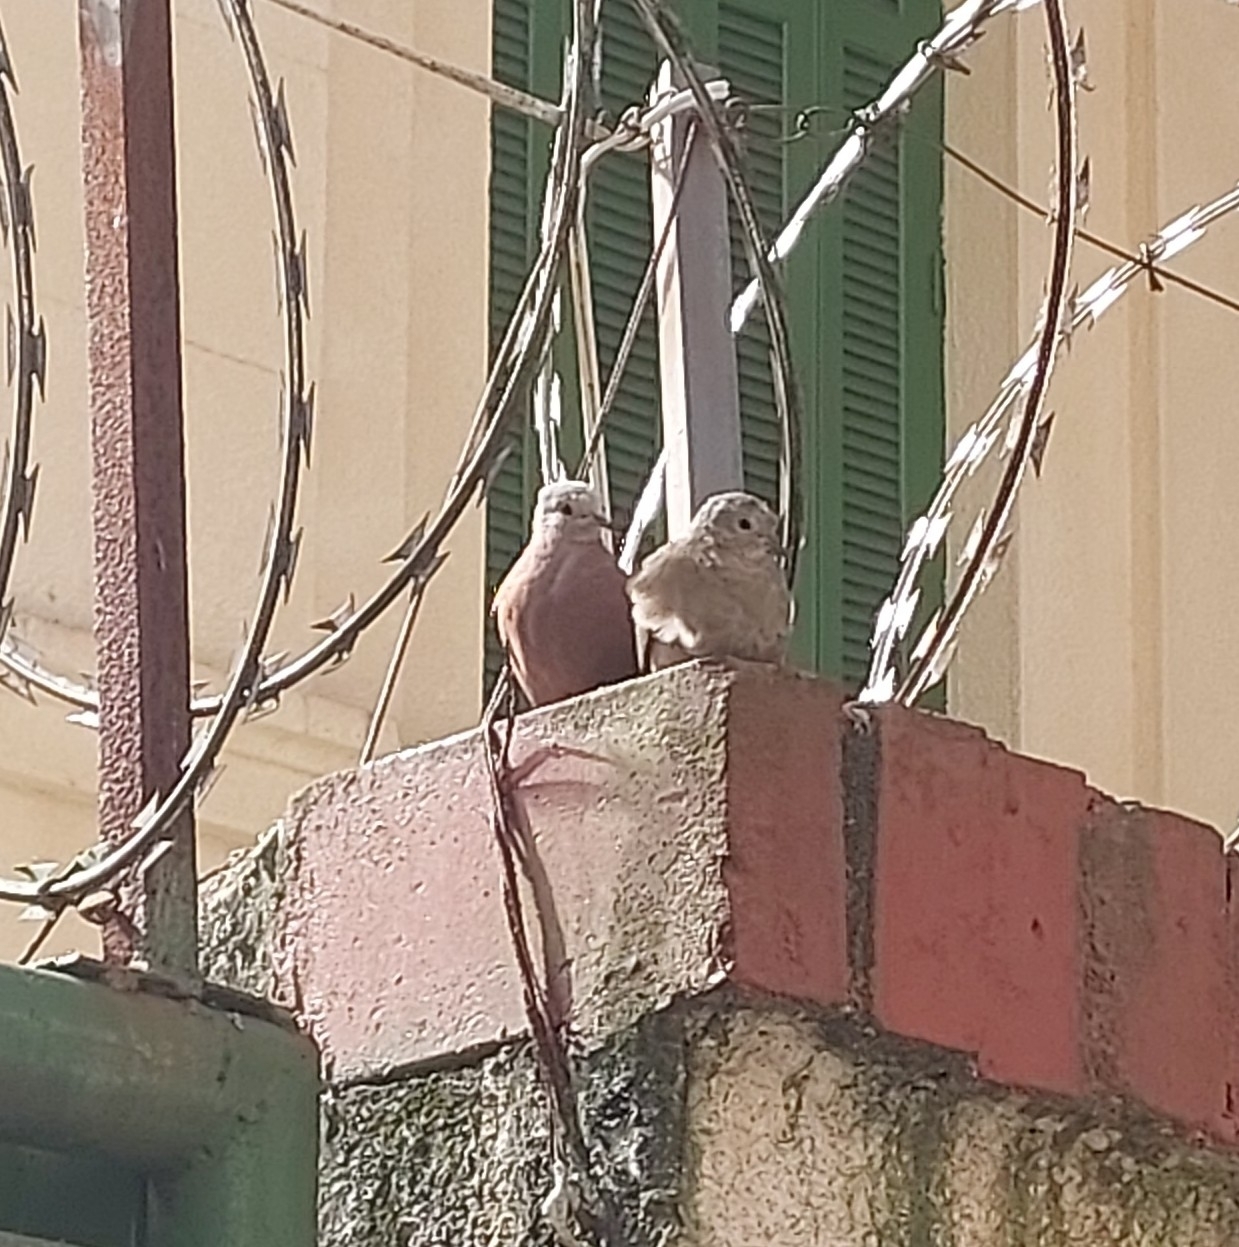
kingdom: Animalia
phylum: Chordata
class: Aves
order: Columbiformes
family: Columbidae
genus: Columbina
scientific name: Columbina talpacoti
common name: Ruddy ground dove
